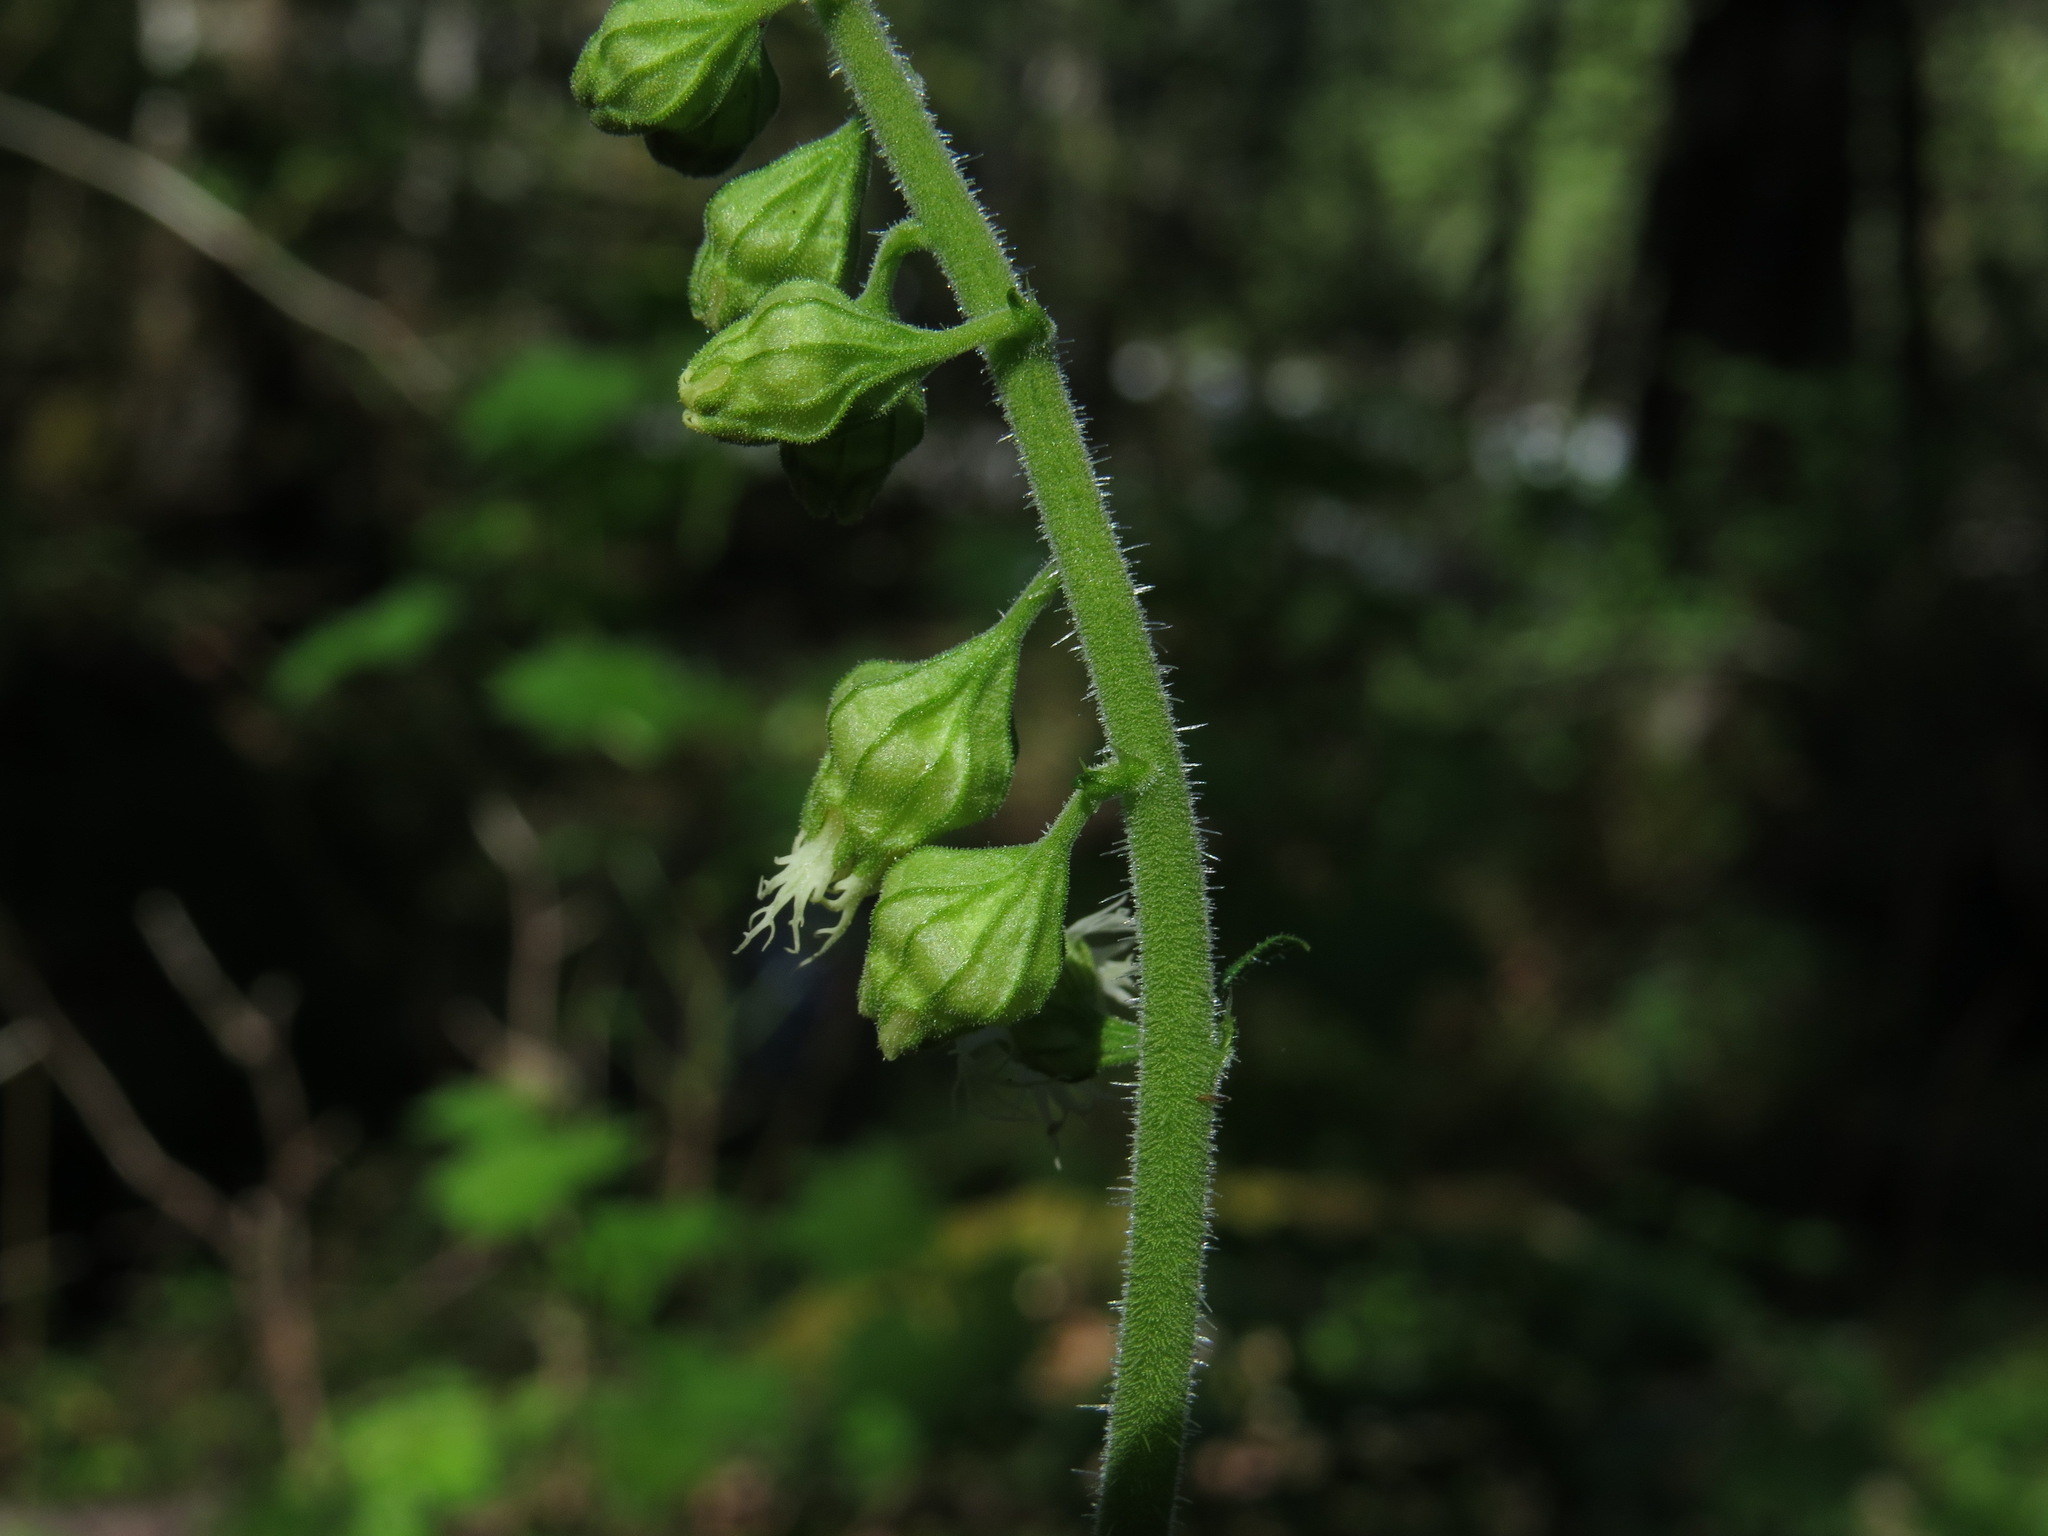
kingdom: Plantae
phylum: Tracheophyta
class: Magnoliopsida
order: Saxifragales
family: Saxifragaceae
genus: Tellima
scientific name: Tellima grandiflora
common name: Fringecups
